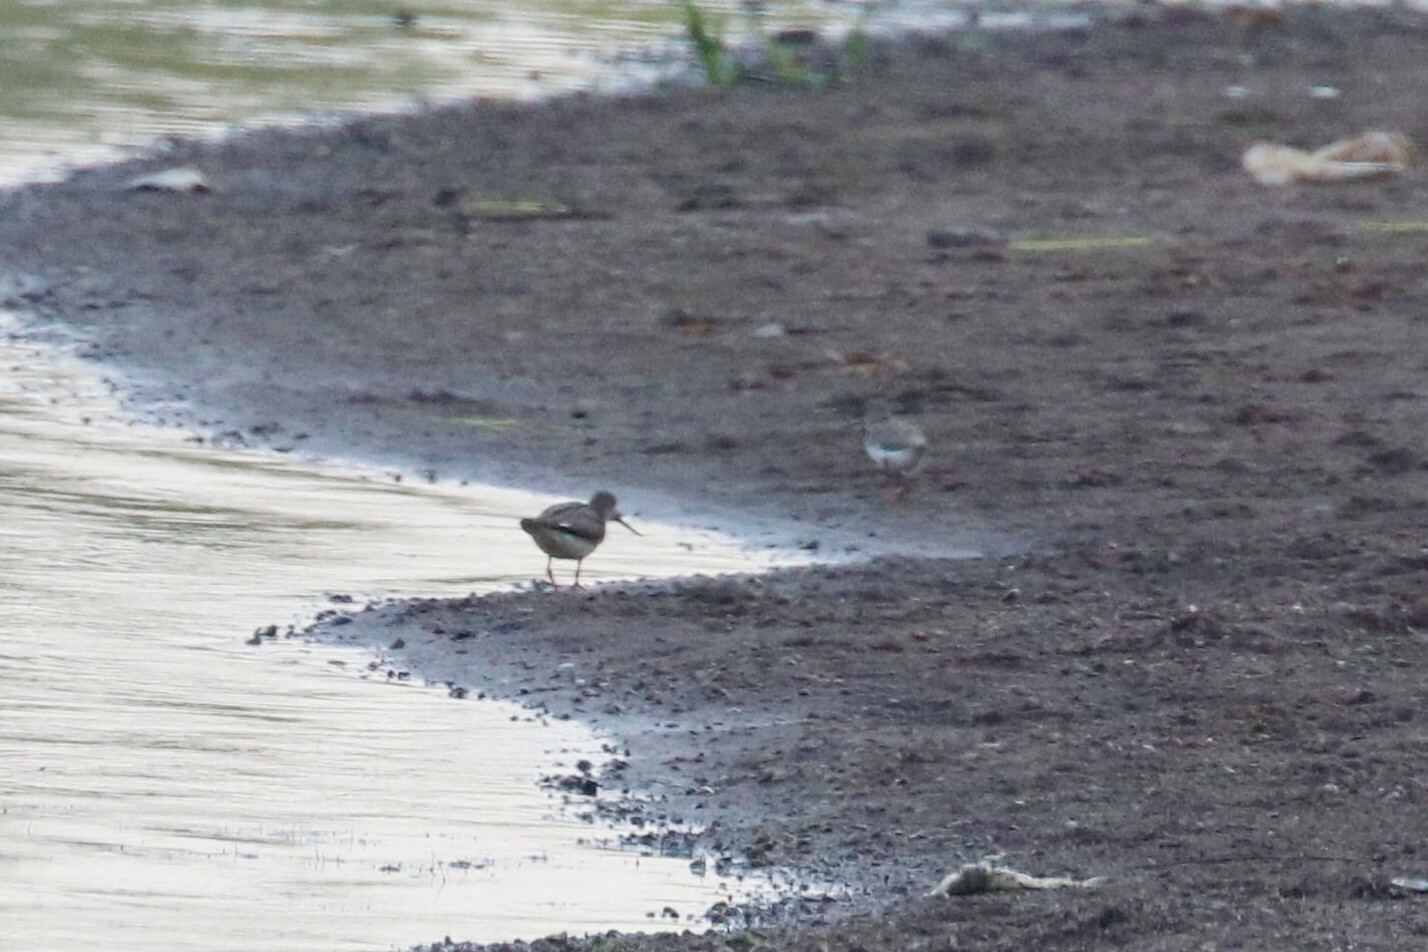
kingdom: Animalia
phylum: Chordata
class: Aves
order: Charadriiformes
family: Scolopacidae
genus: Xenus
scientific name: Xenus cinereus
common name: Terek sandpiper
